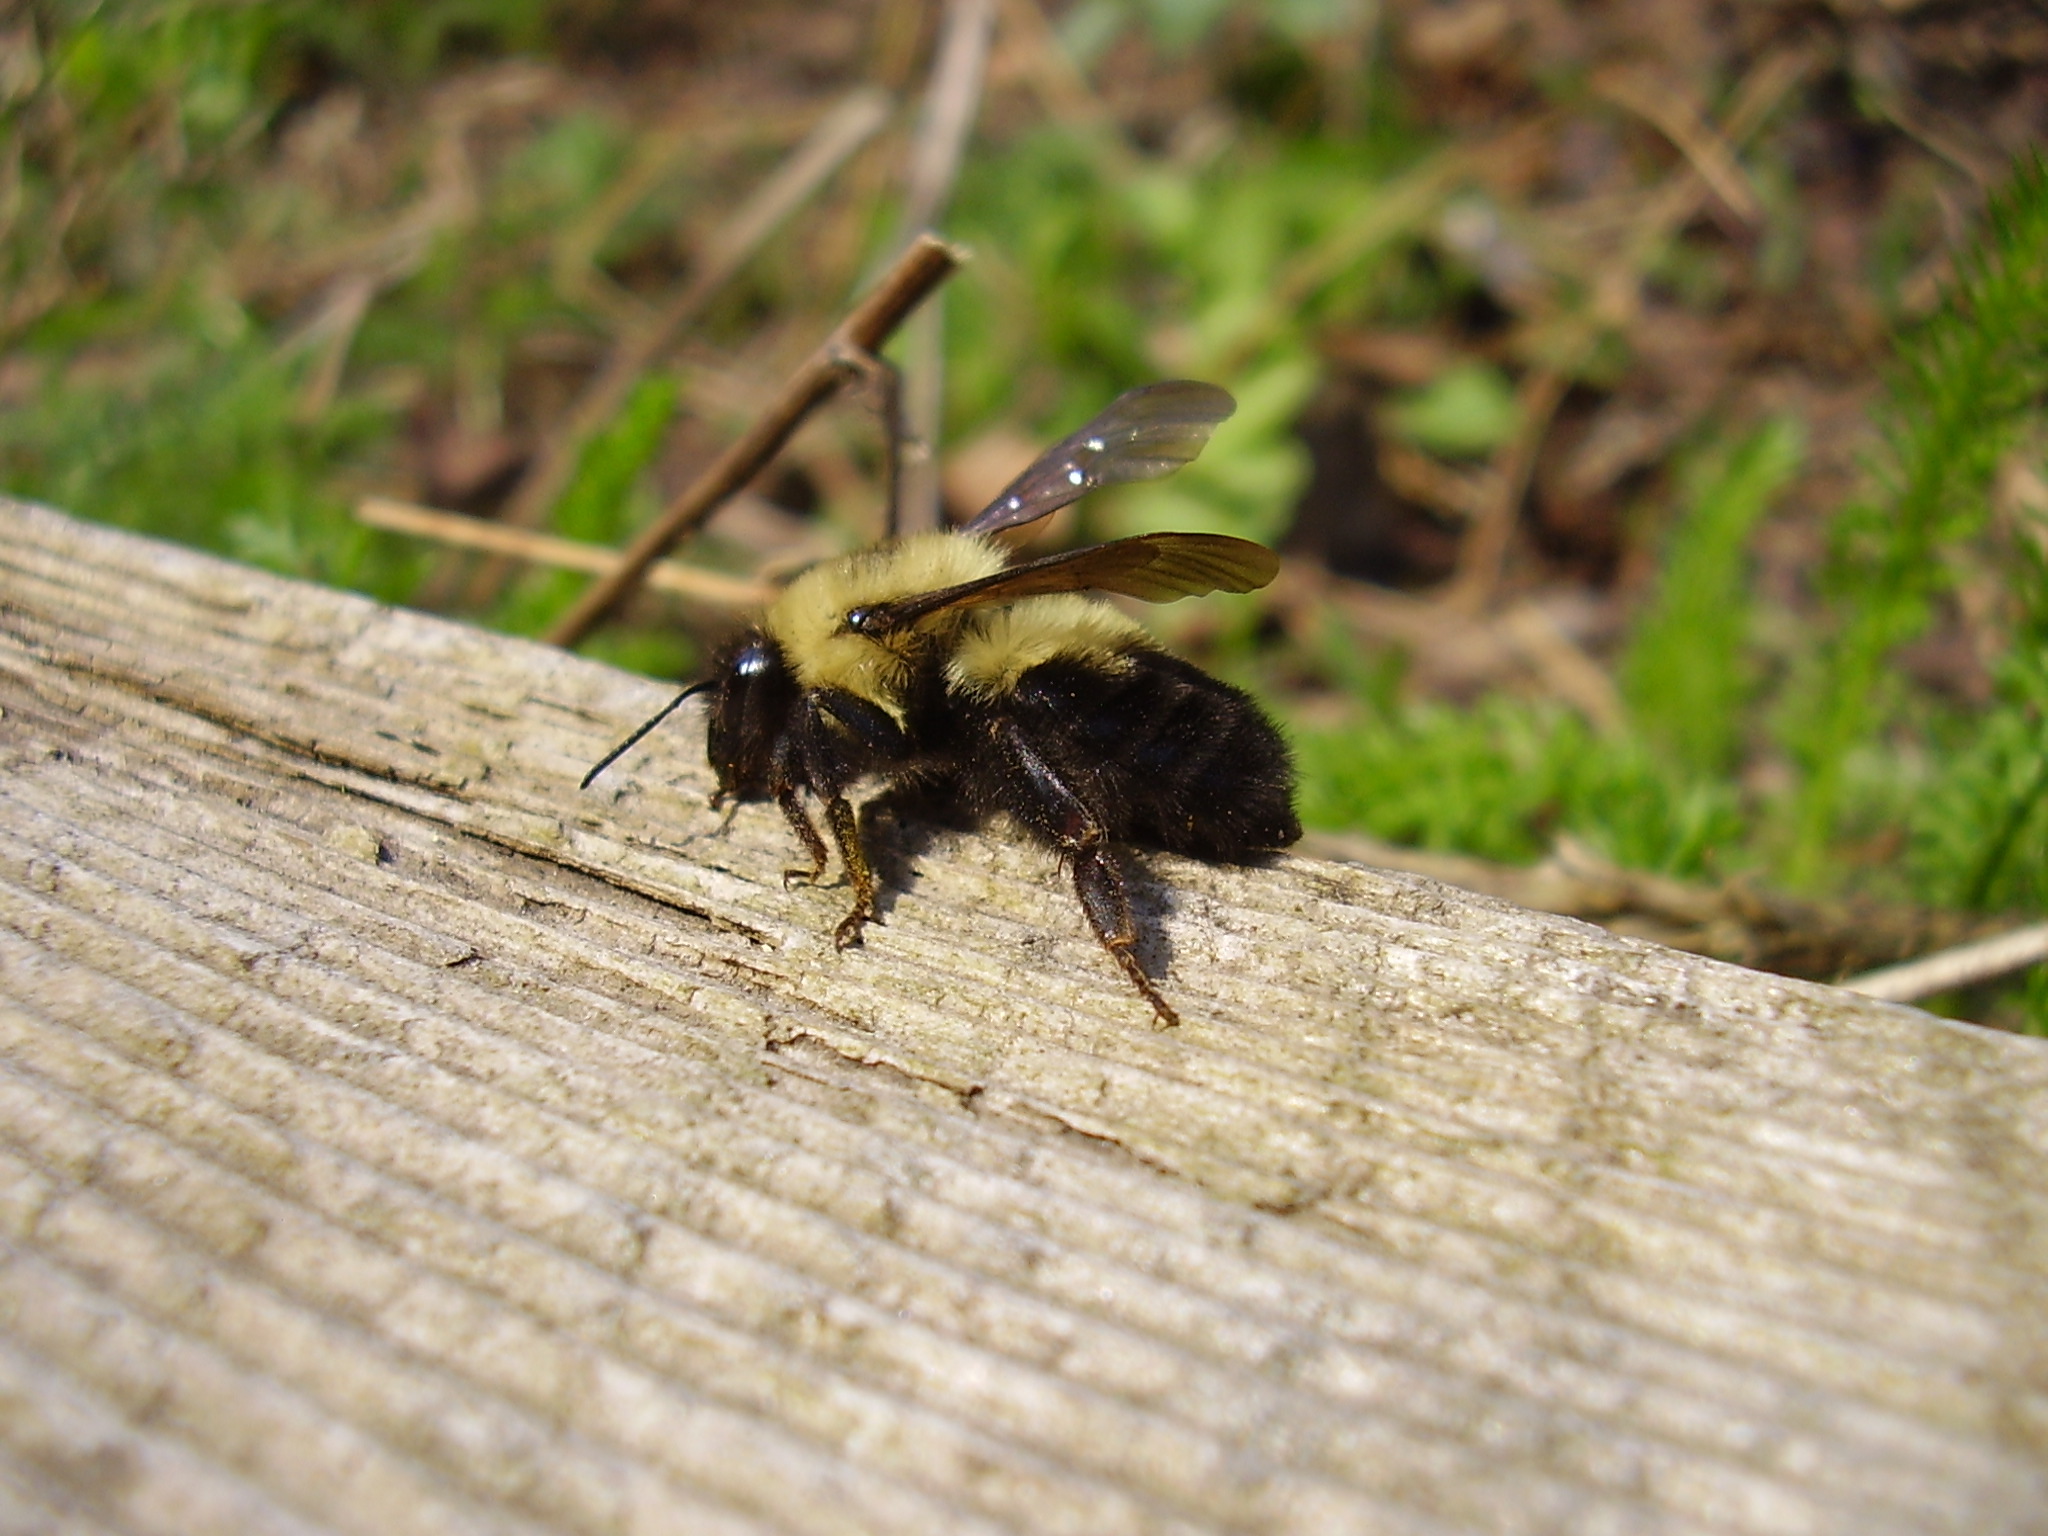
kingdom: Animalia
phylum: Arthropoda
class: Insecta
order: Hymenoptera
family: Apidae
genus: Bombus
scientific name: Bombus bimaculatus
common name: Two-spotted bumble bee
